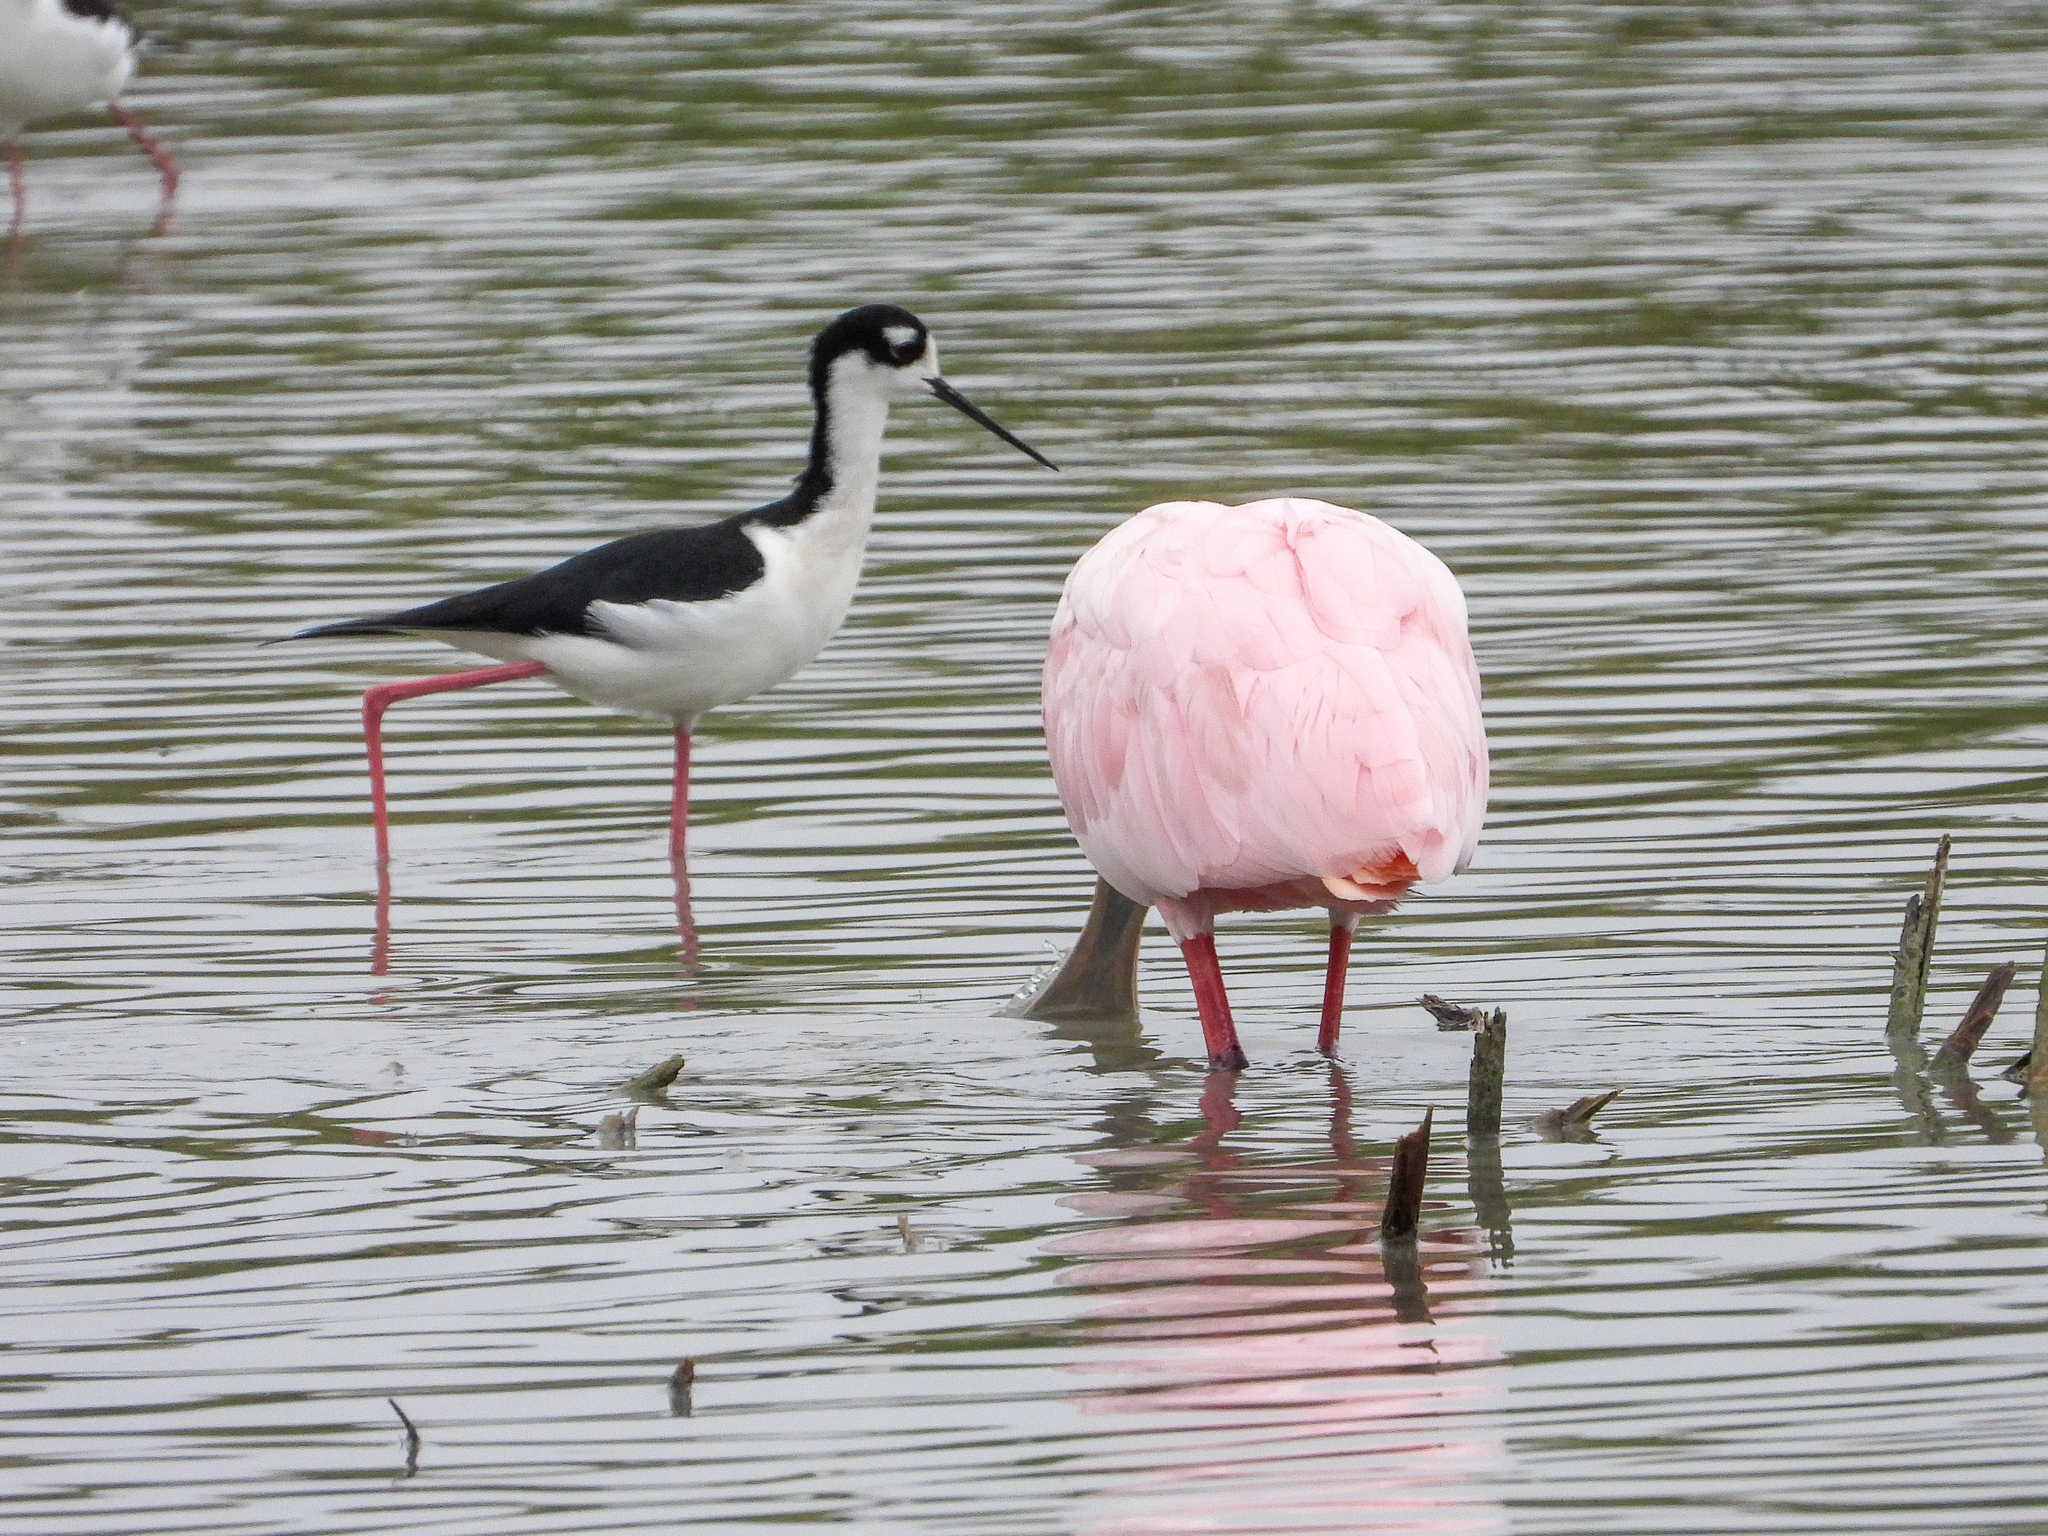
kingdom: Animalia
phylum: Chordata
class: Aves
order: Charadriiformes
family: Recurvirostridae
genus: Himantopus
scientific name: Himantopus mexicanus
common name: Black-necked stilt
